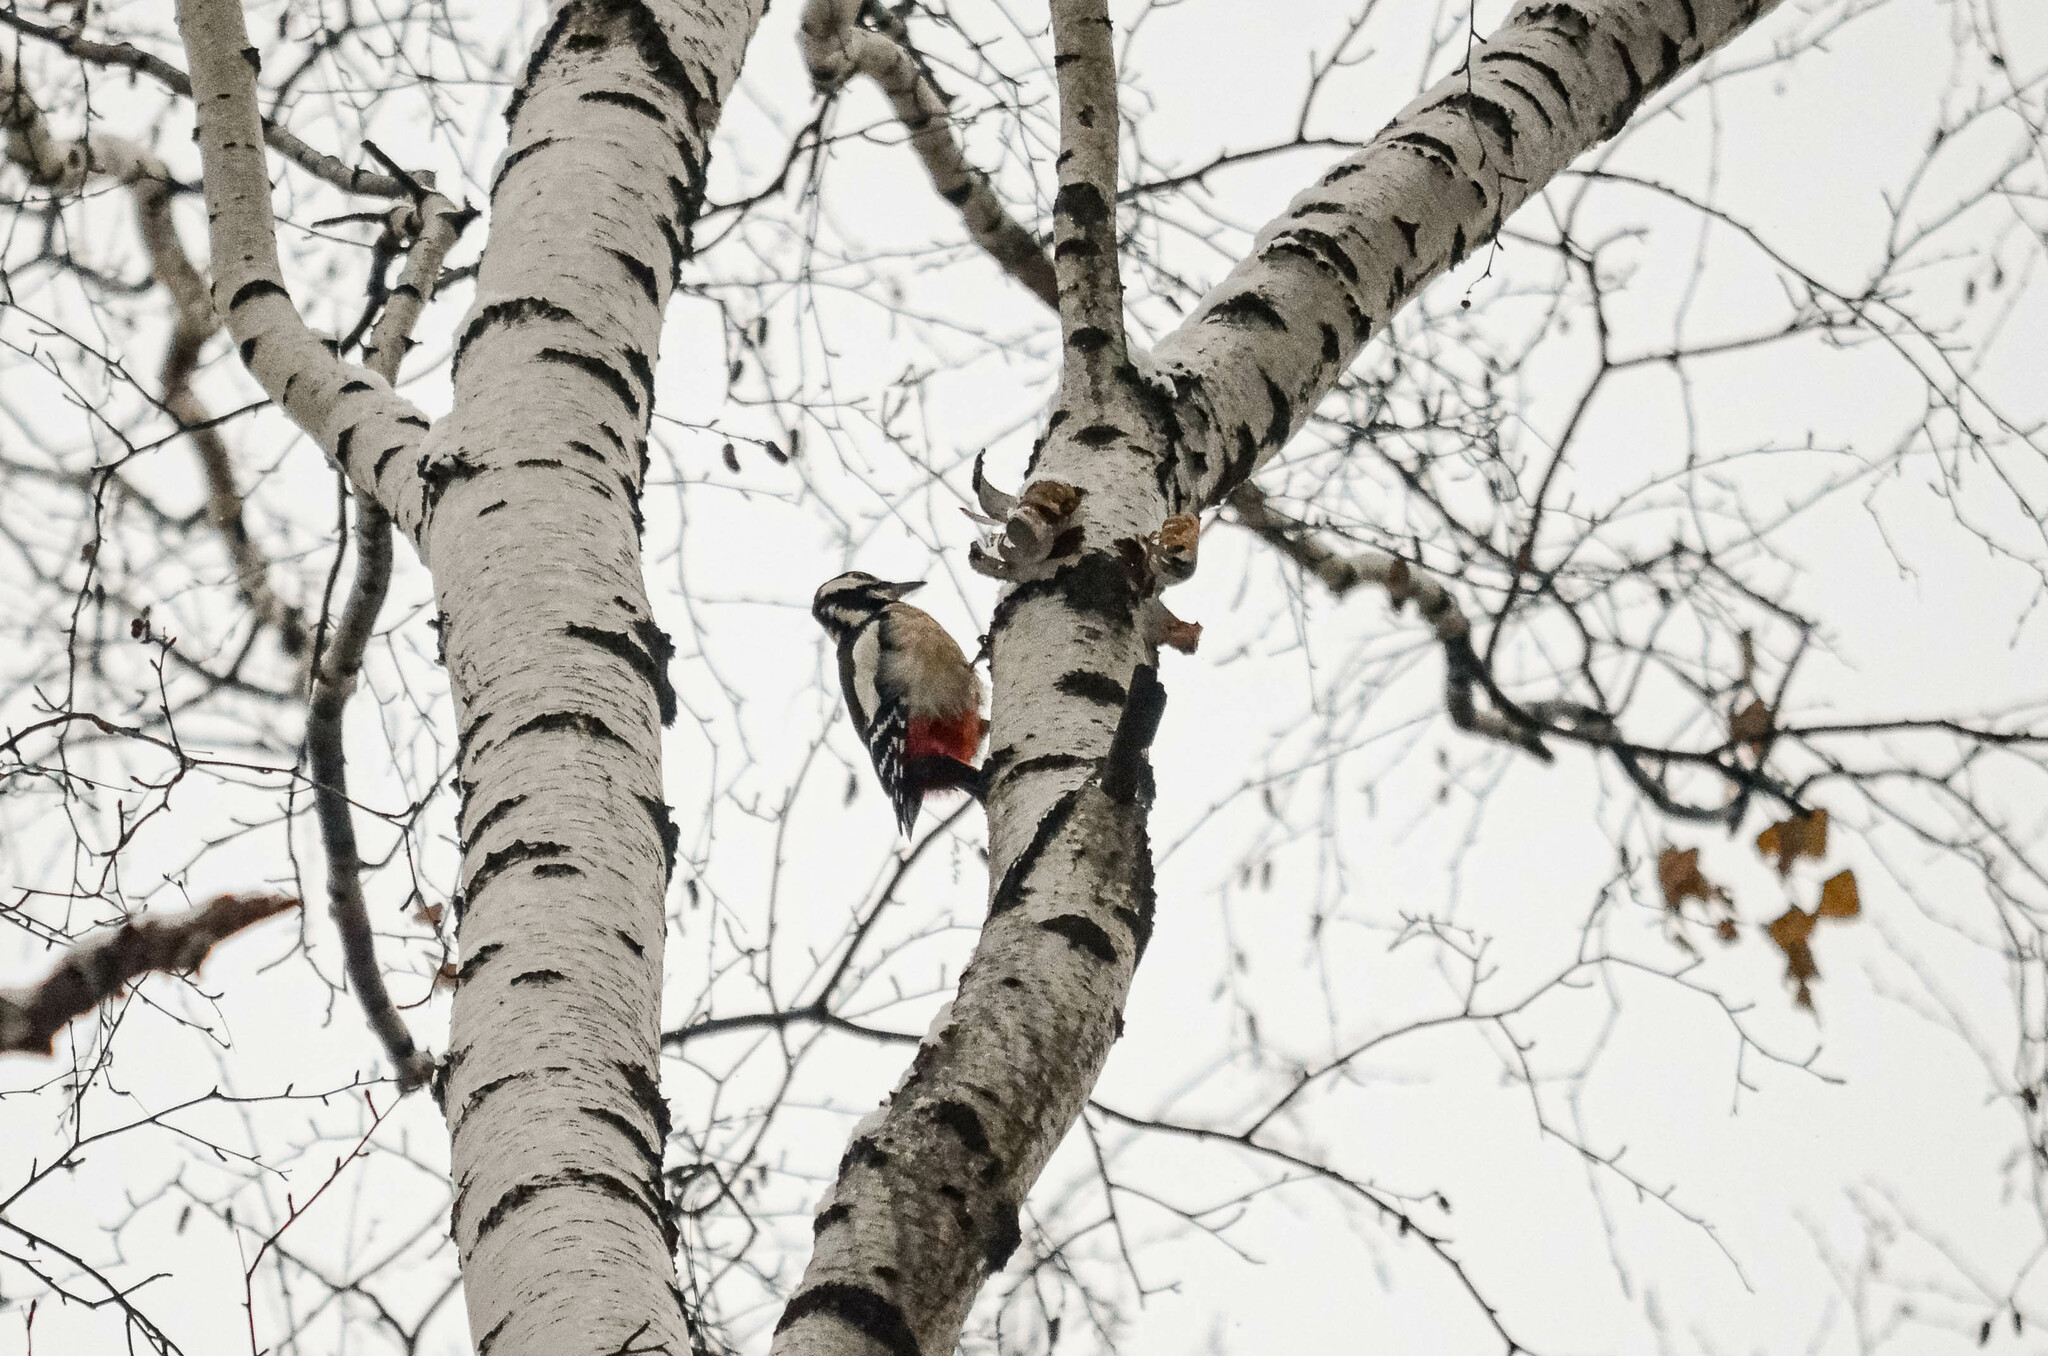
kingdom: Animalia
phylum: Chordata
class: Aves
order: Piciformes
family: Picidae
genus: Dendrocopos
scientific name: Dendrocopos major
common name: Great spotted woodpecker
